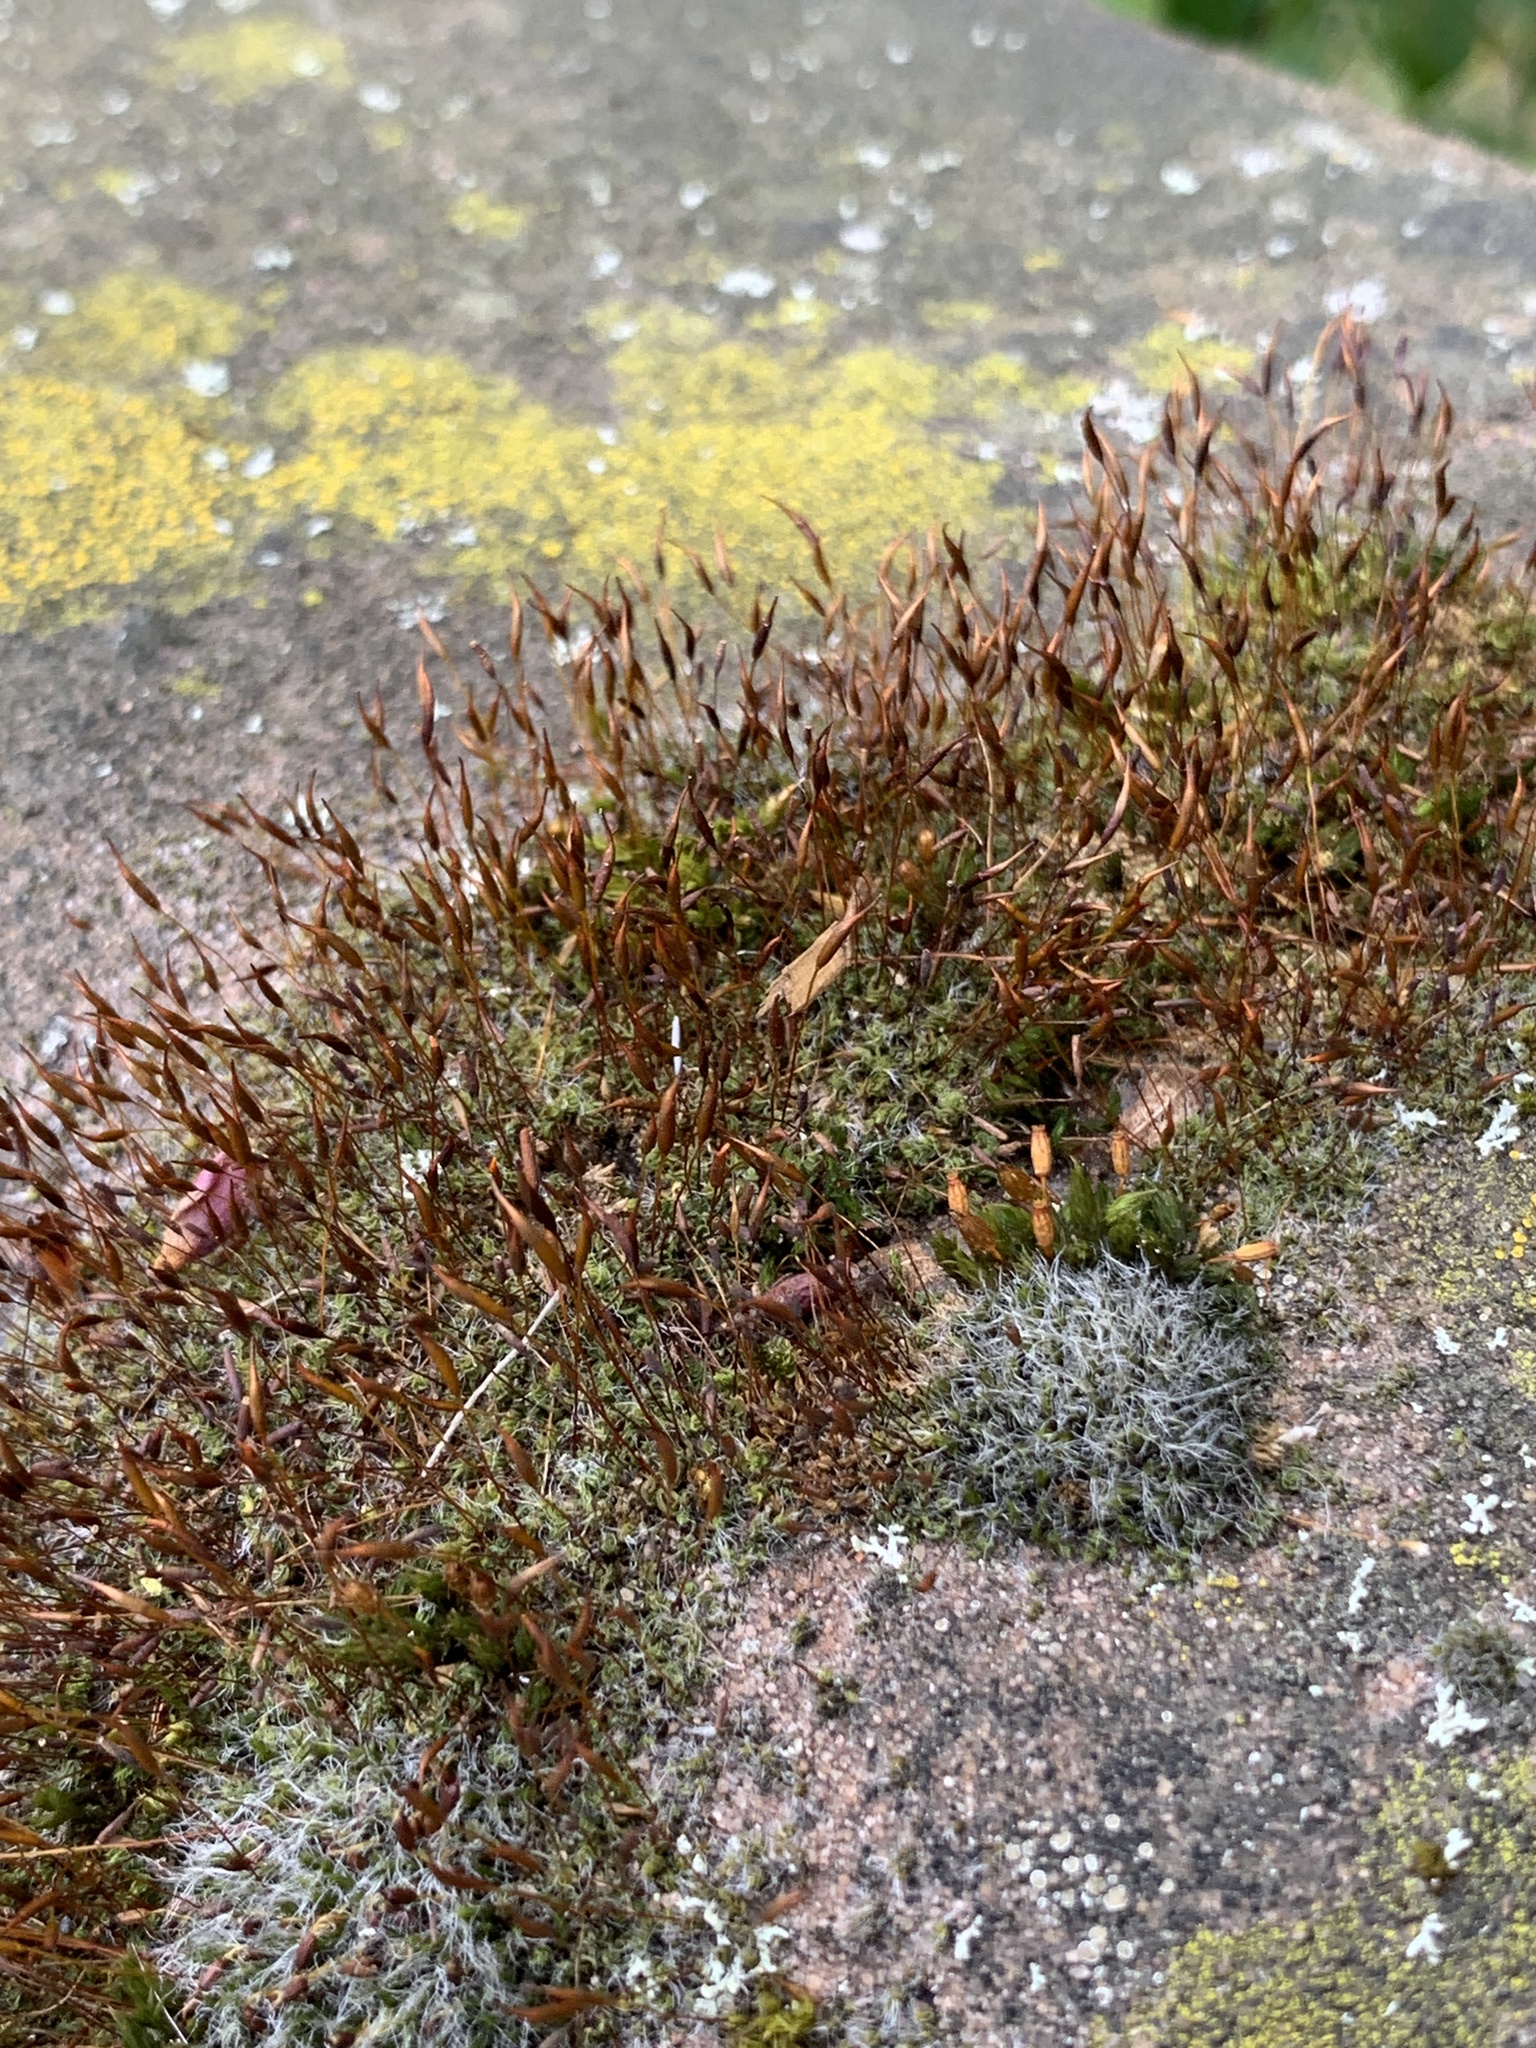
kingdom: Plantae
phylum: Bryophyta
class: Bryopsida
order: Pottiales
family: Pottiaceae
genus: Tortula
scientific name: Tortula muralis
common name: Wall screw-moss
